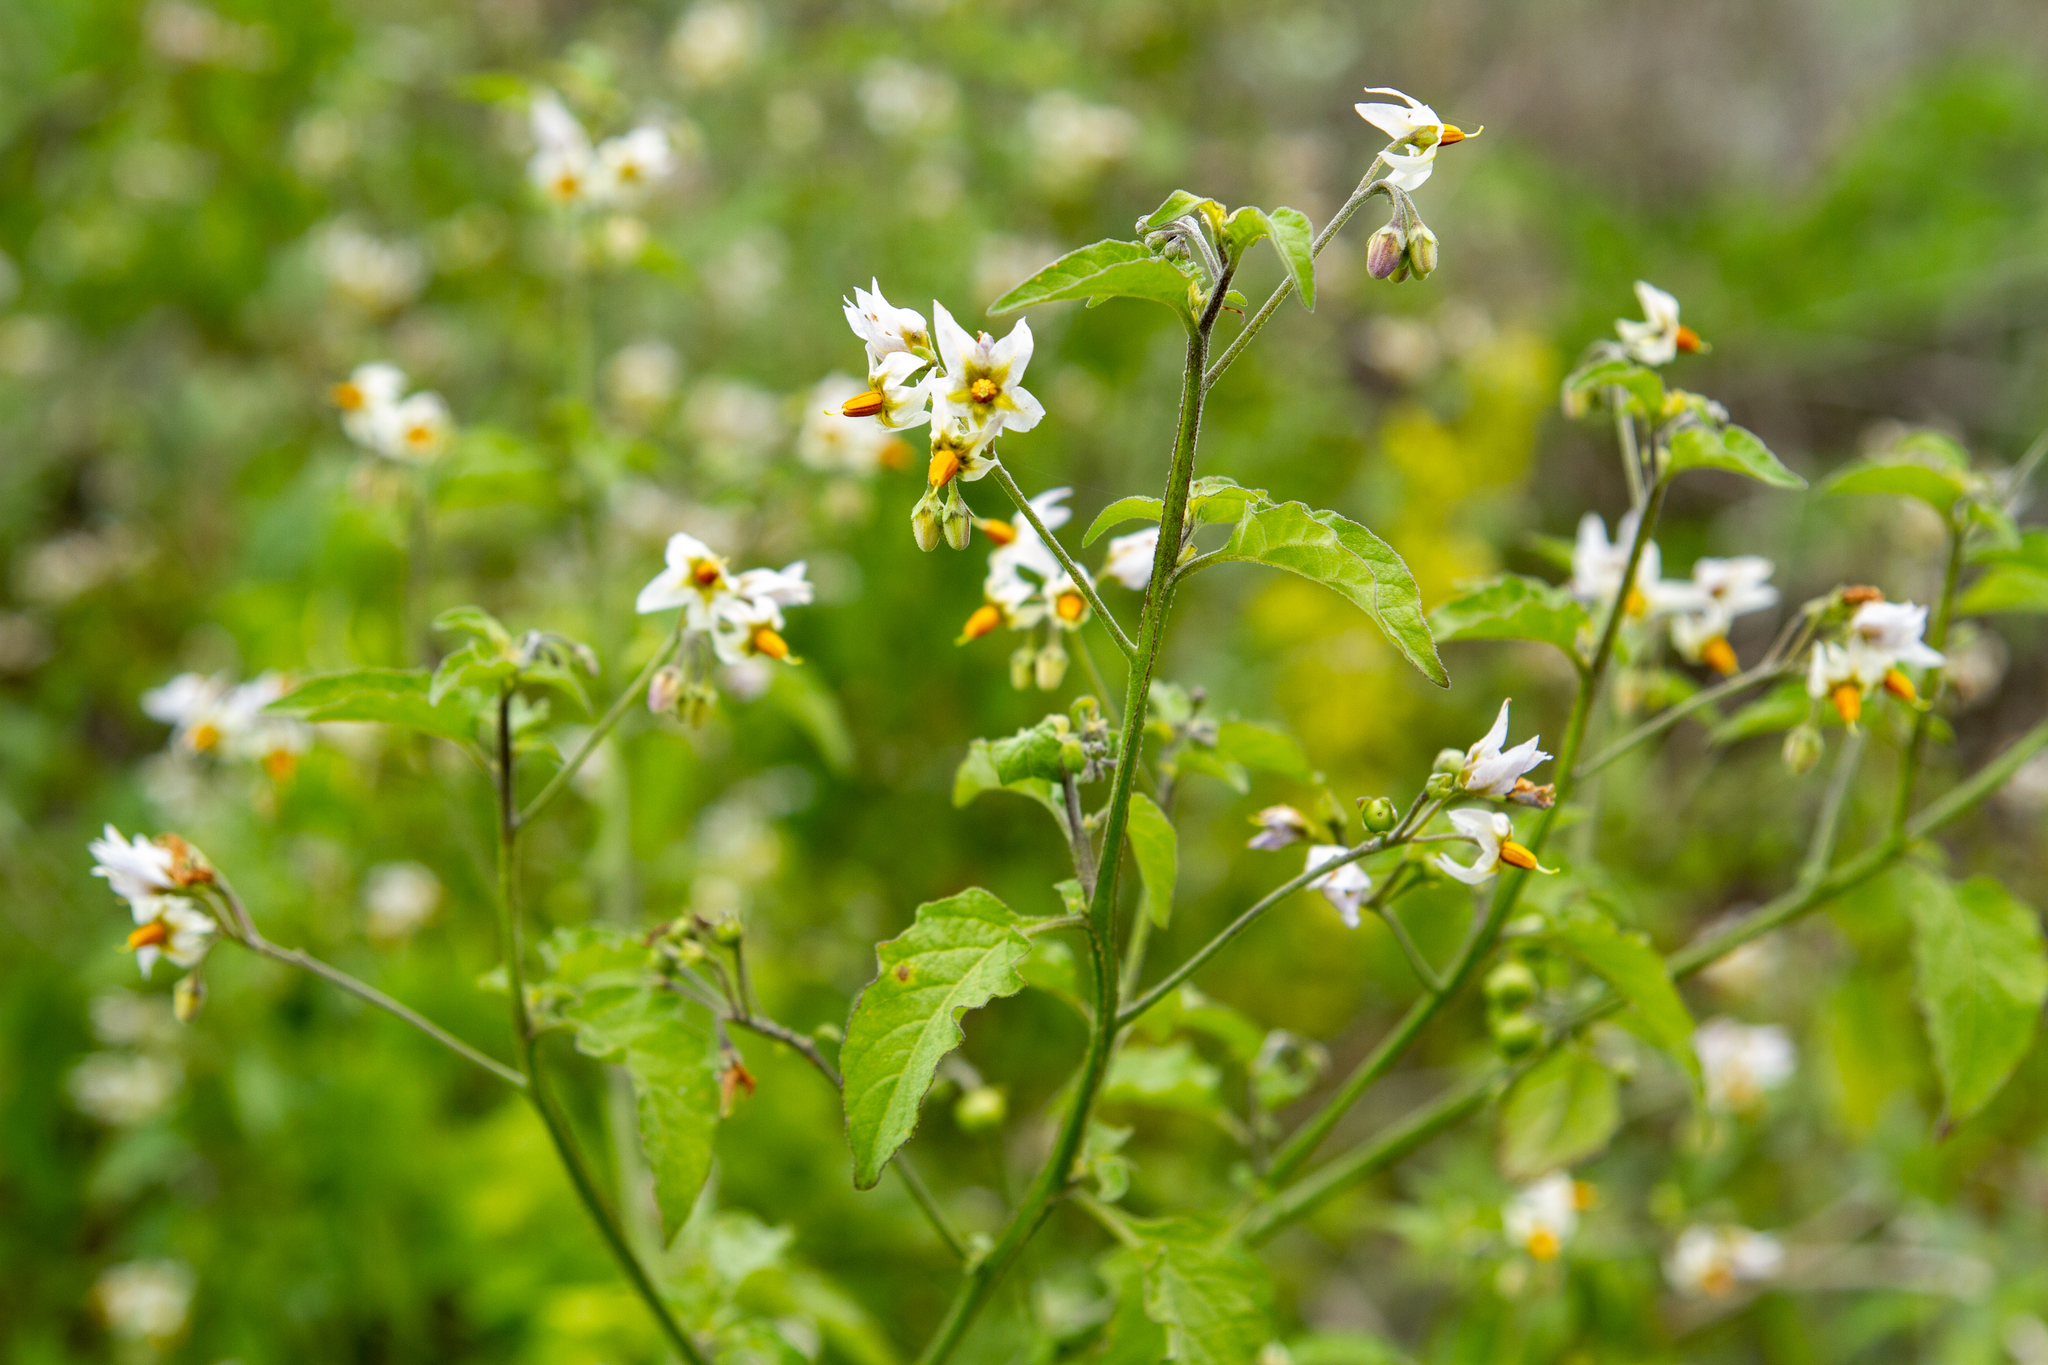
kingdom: Plantae
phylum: Tracheophyta
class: Magnoliopsida
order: Solanales
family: Solanaceae
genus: Solanum
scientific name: Solanum douglasii
